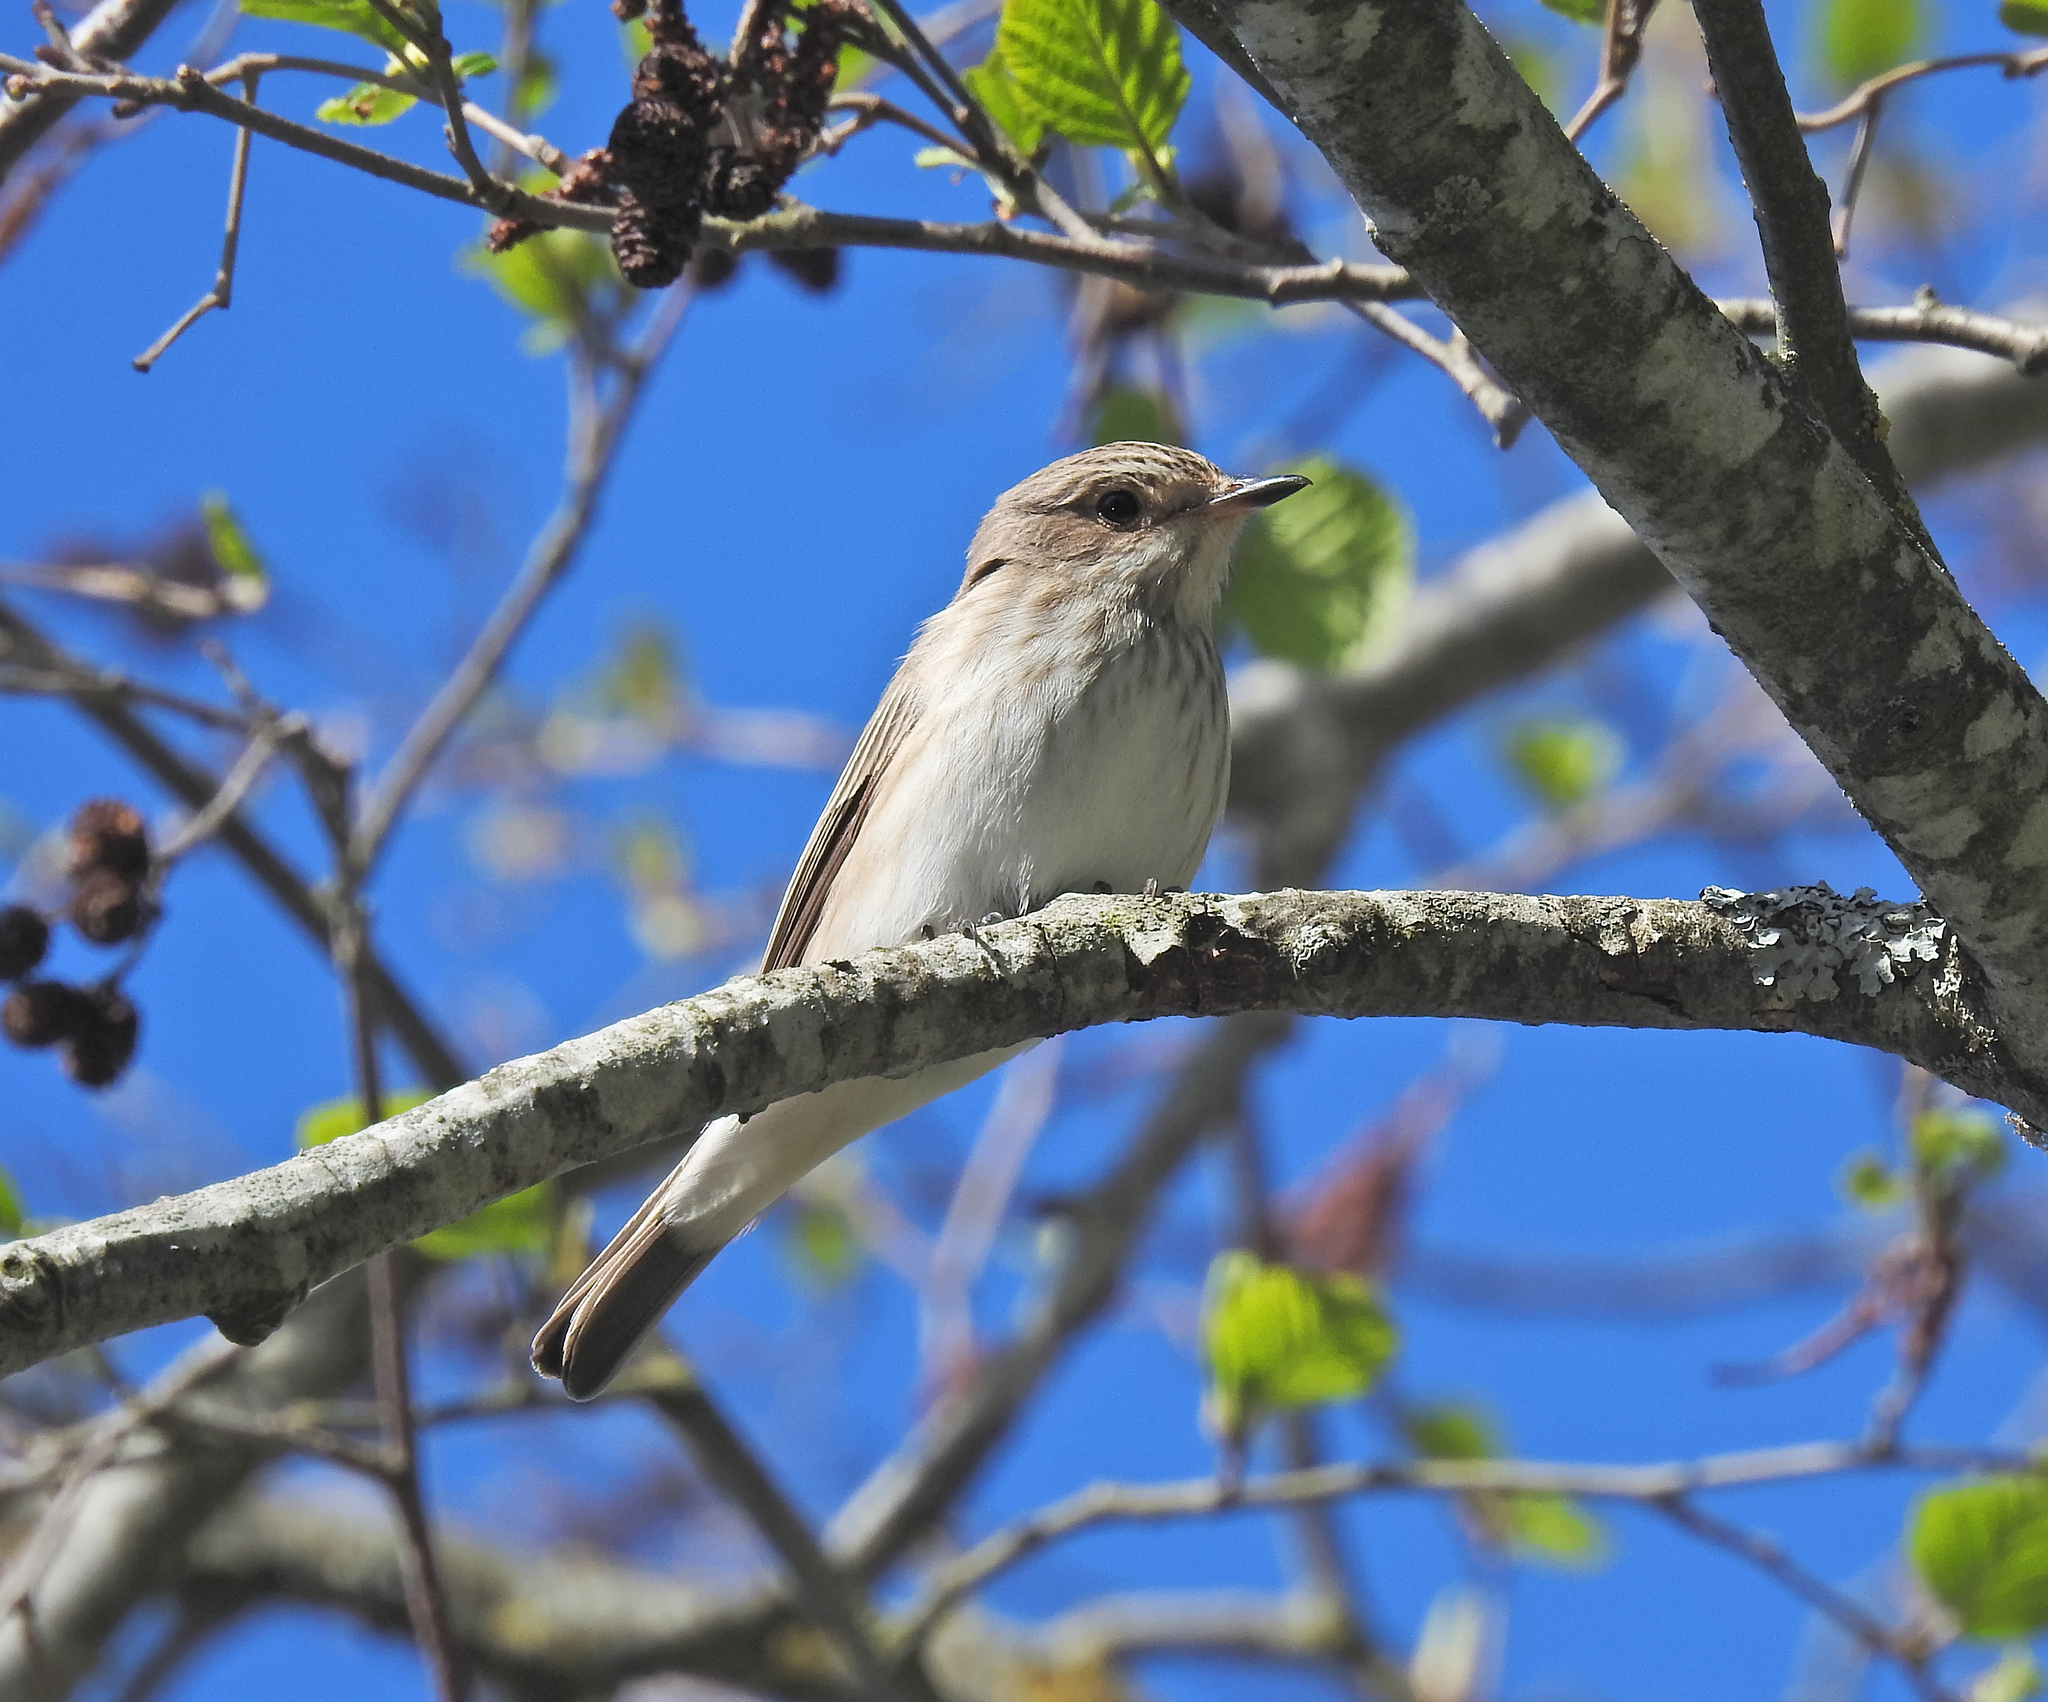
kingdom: Animalia
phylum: Chordata
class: Aves
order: Passeriformes
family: Muscicapidae
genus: Muscicapa
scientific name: Muscicapa striata
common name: Spotted flycatcher
